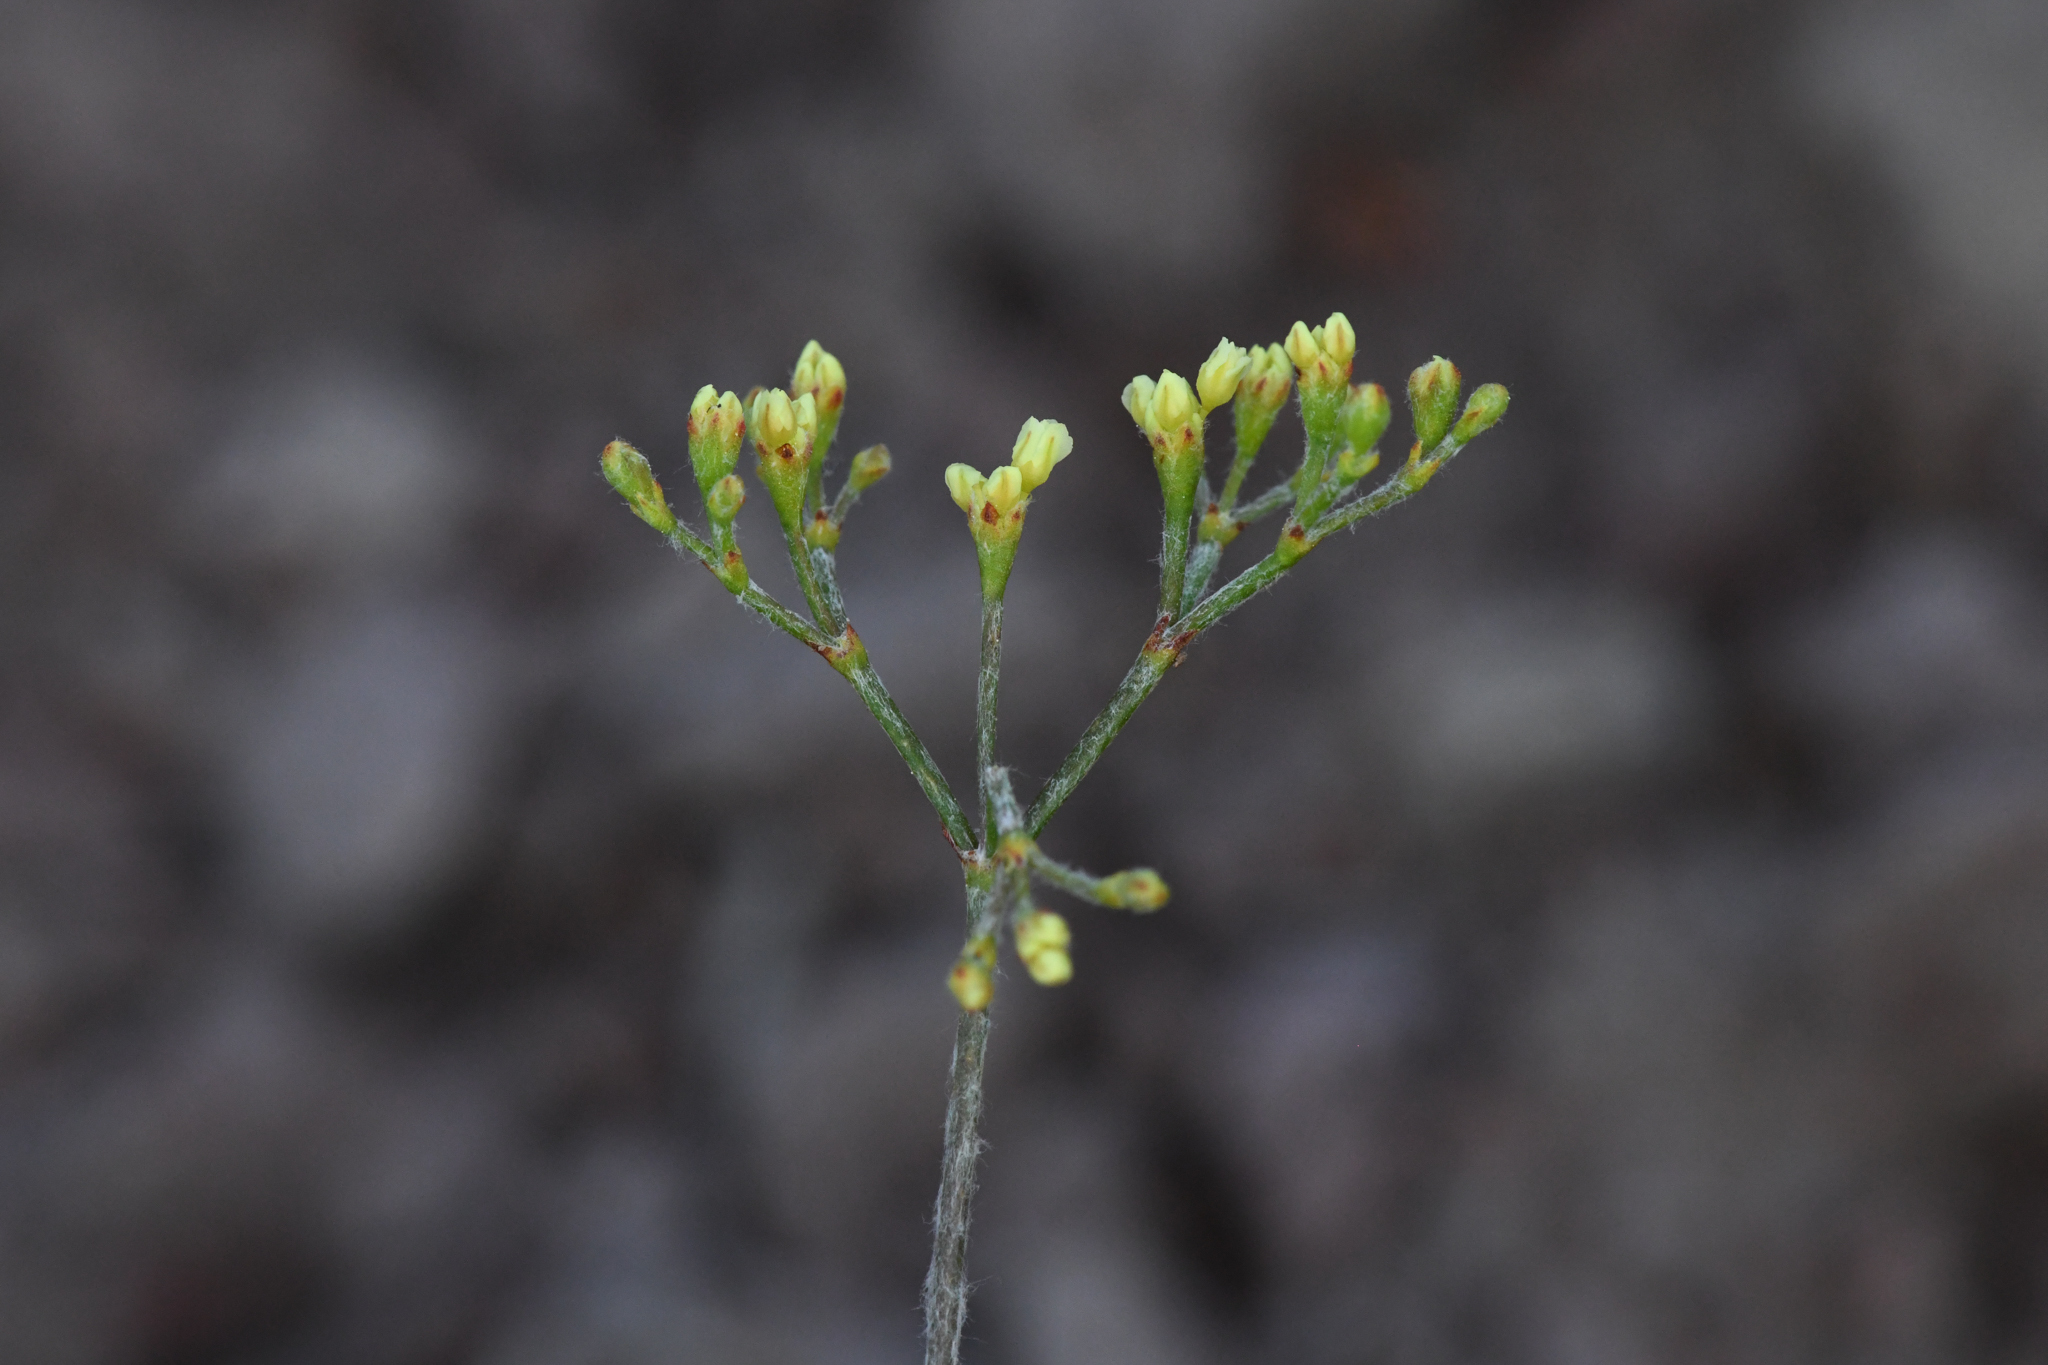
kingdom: Plantae
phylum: Tracheophyta
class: Magnoliopsida
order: Caryophyllales
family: Polygonaceae
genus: Eriogonum
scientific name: Eriogonum microtheca
